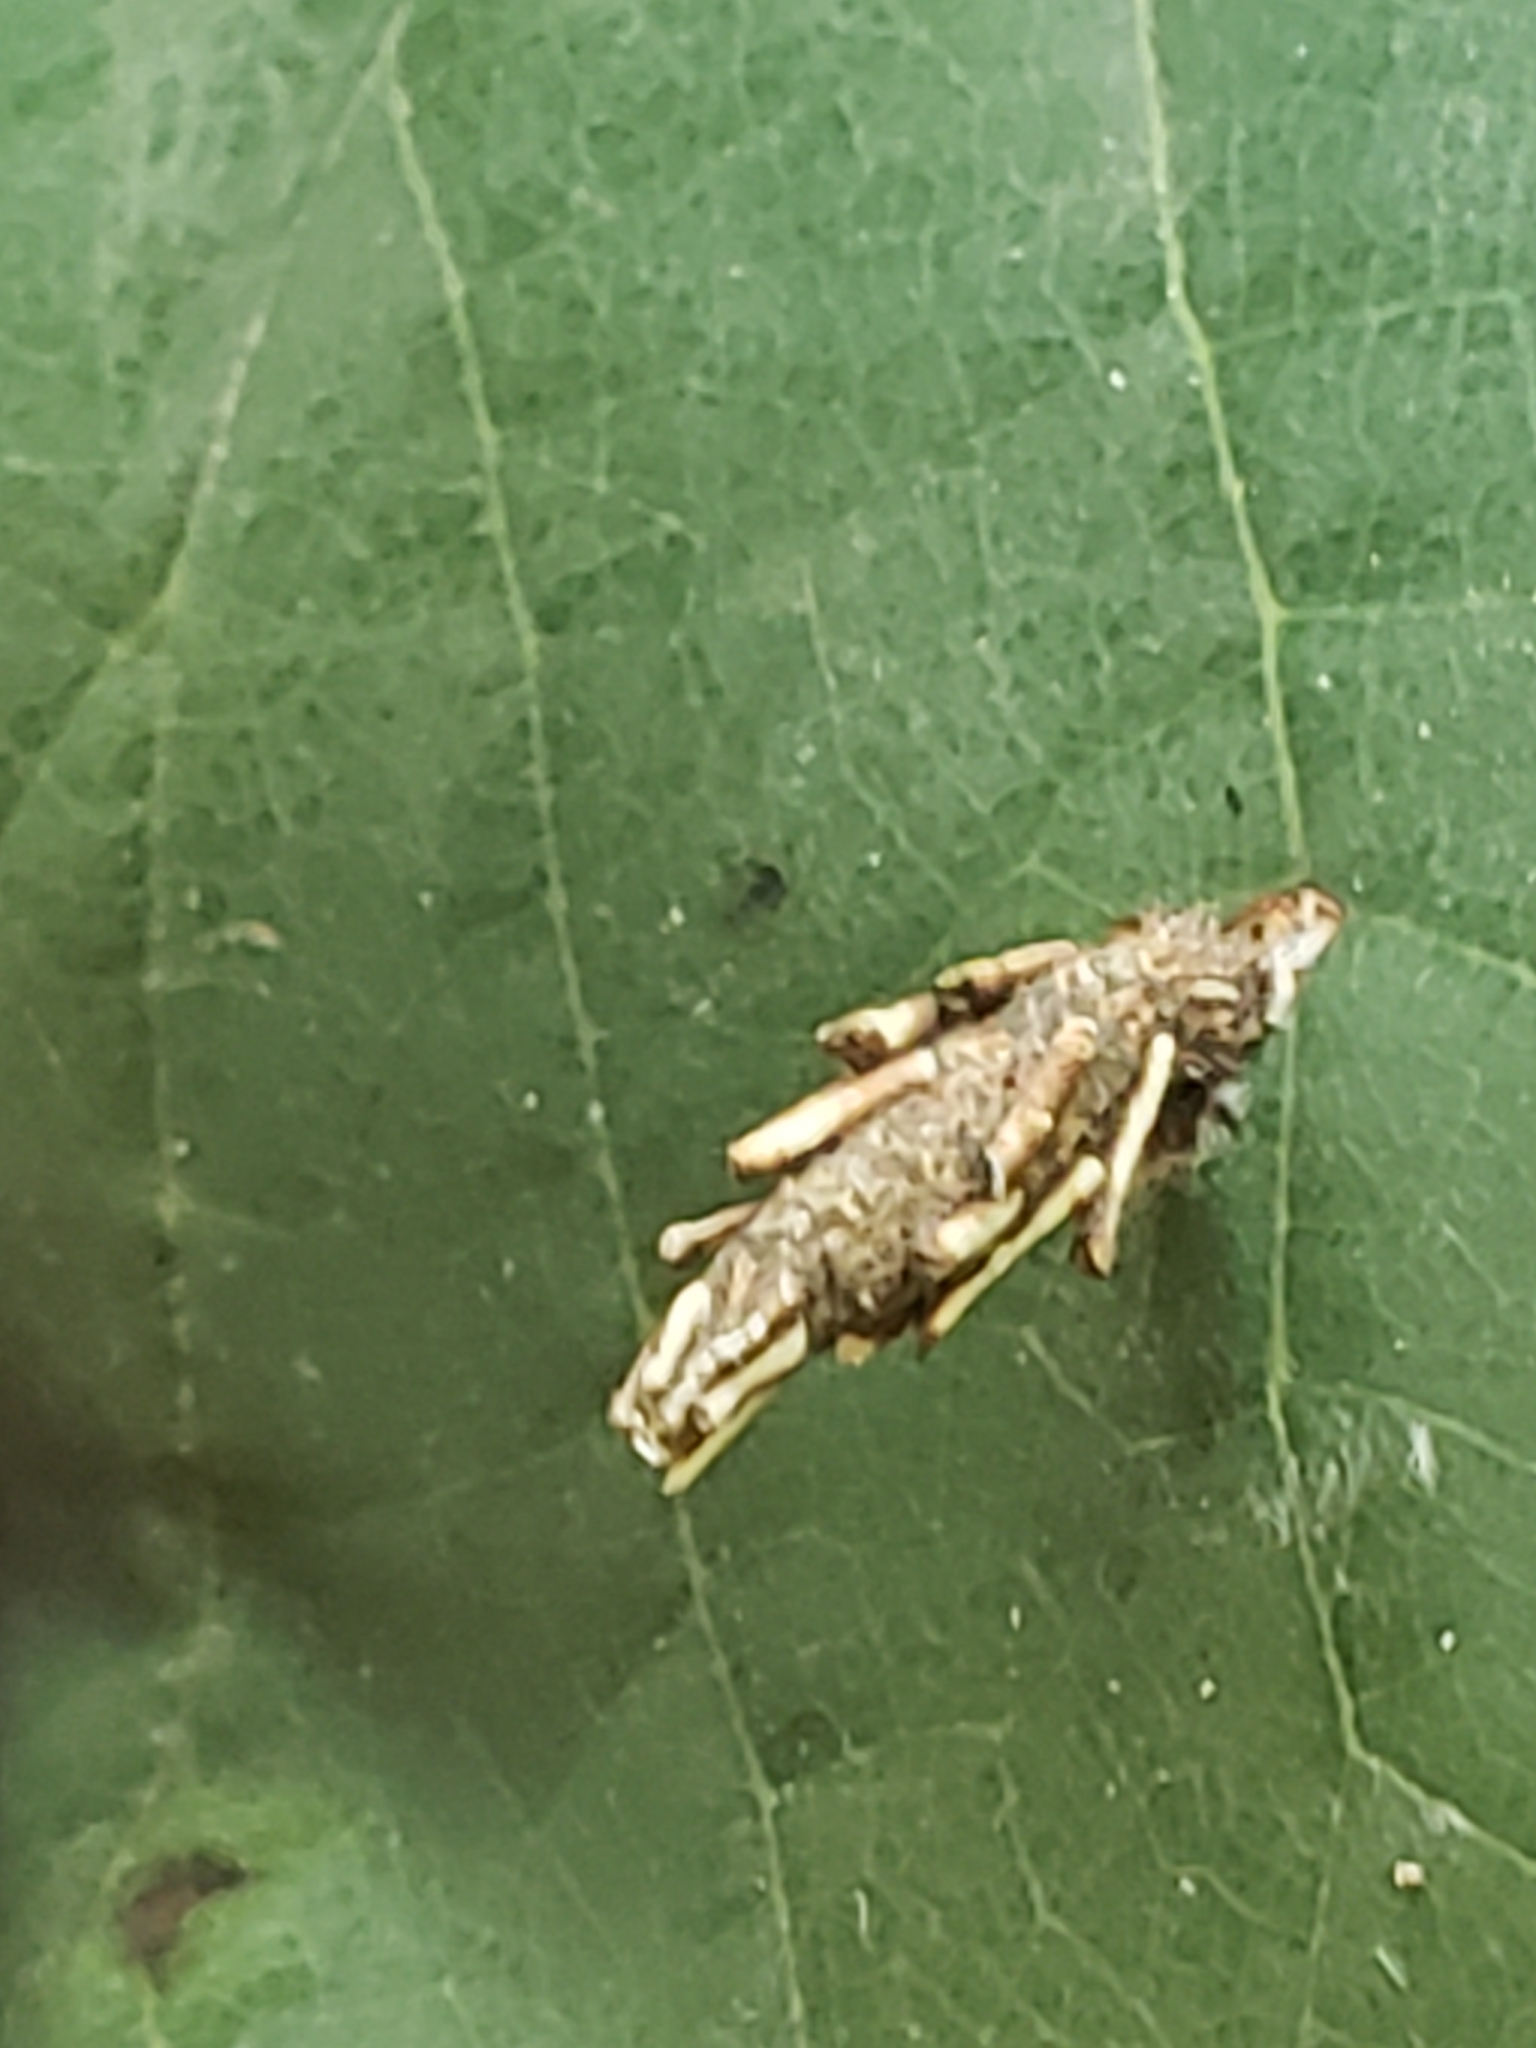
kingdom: Animalia
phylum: Arthropoda
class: Insecta
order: Lepidoptera
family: Psychidae
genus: Psyche
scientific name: Psyche casta
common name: Common sweep
